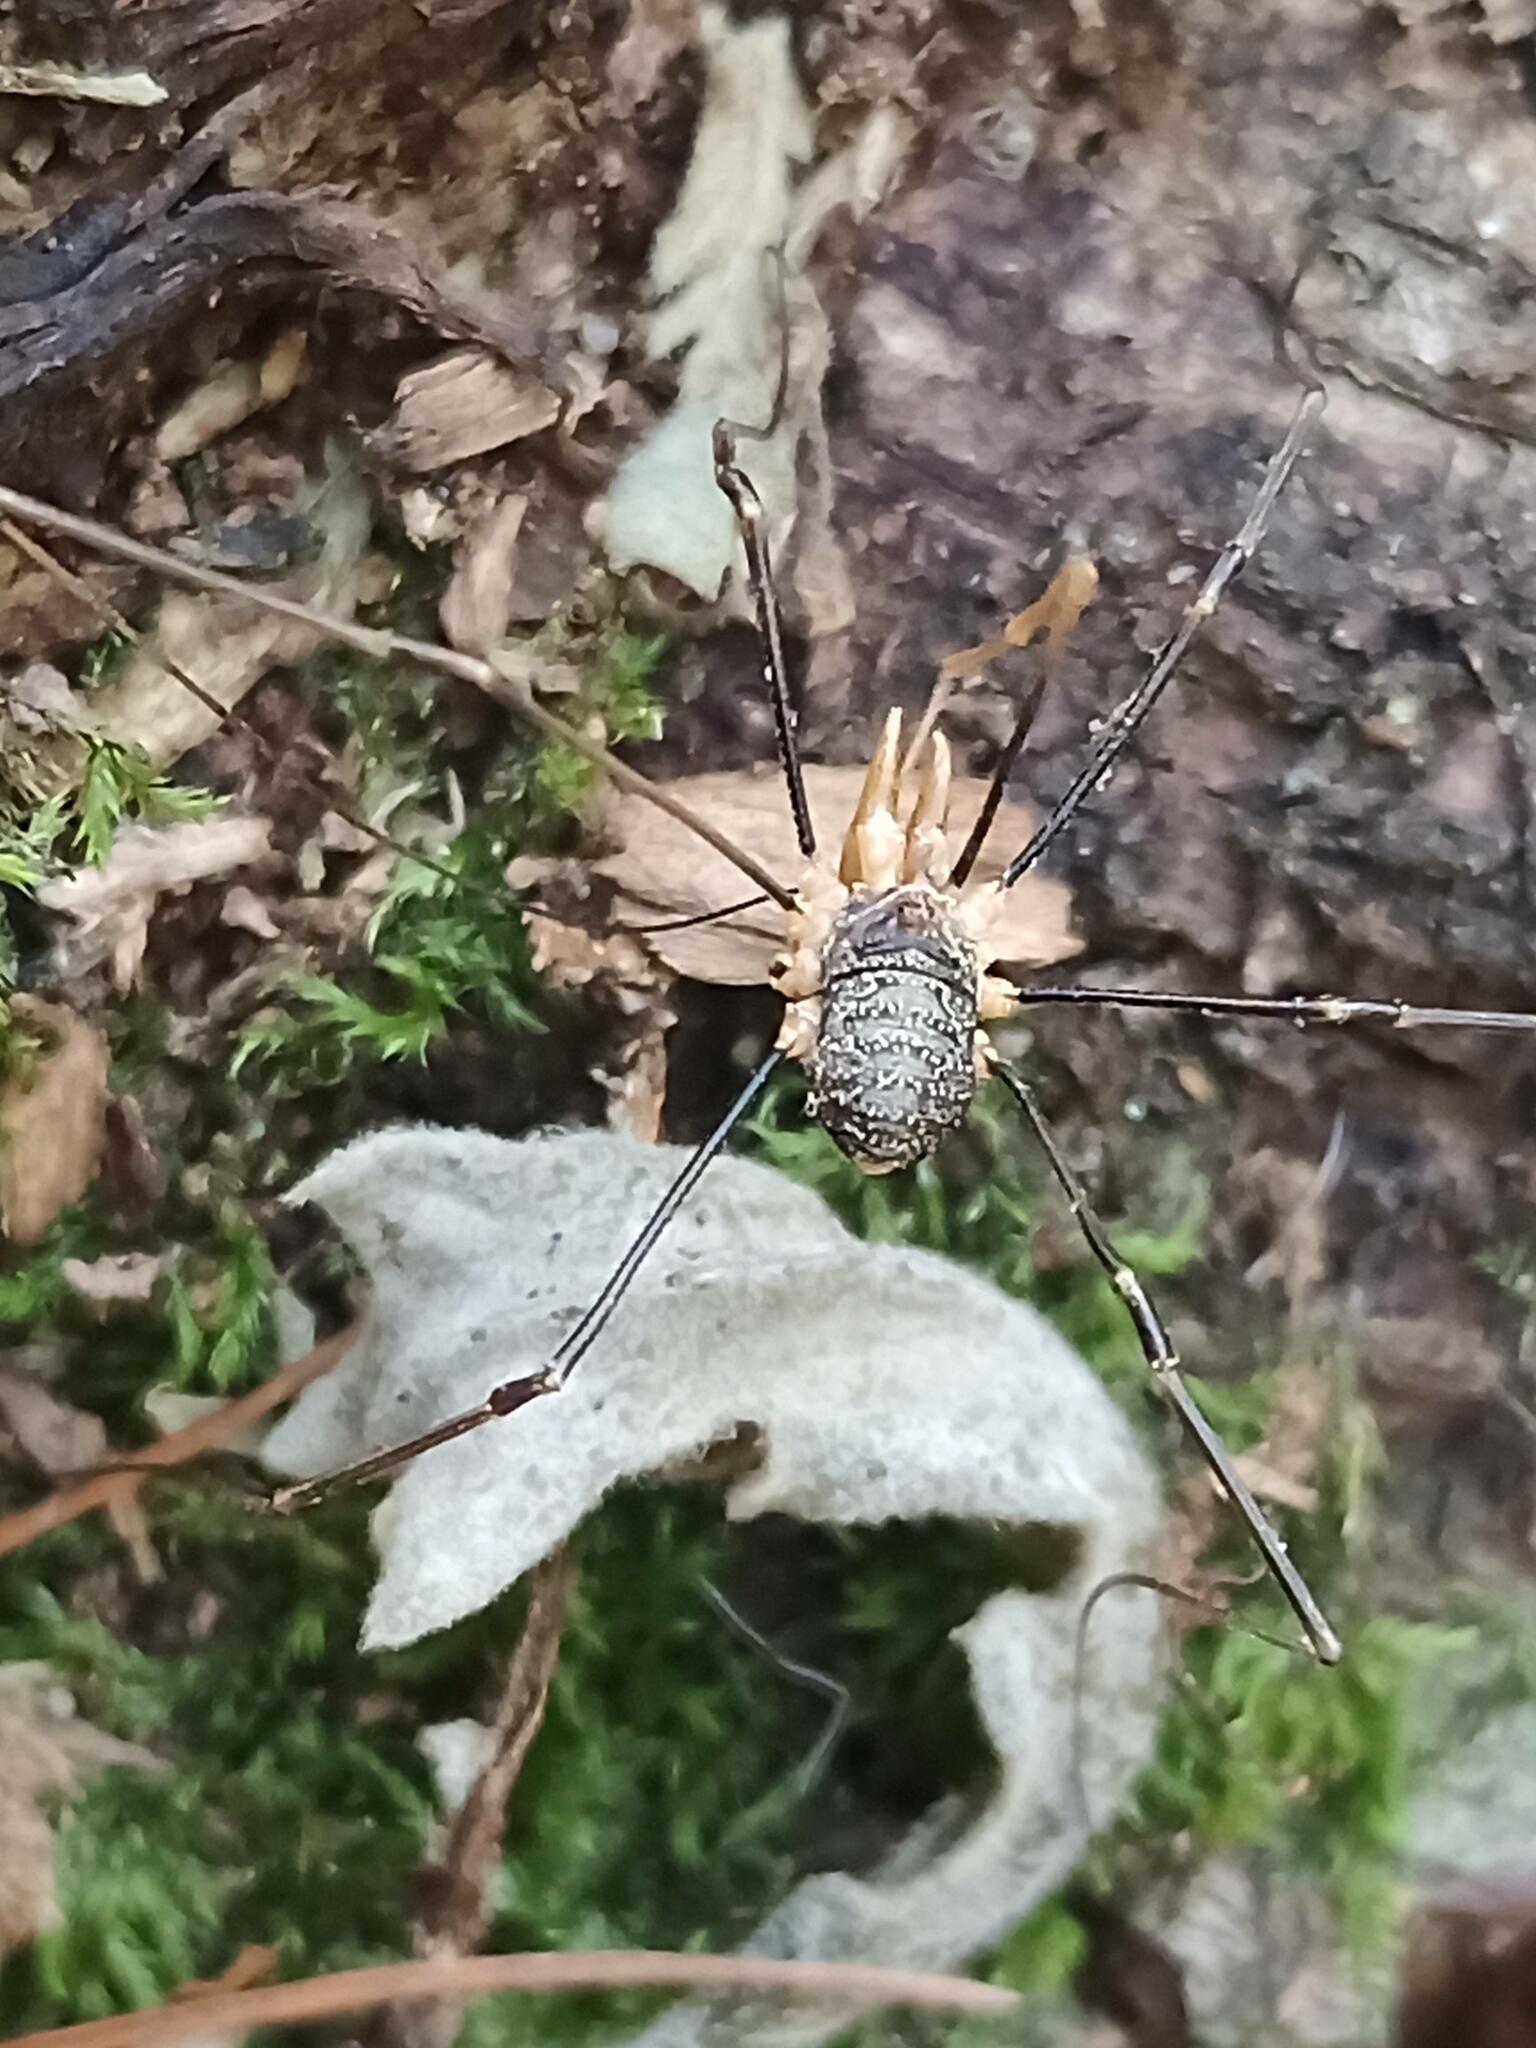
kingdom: Animalia
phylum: Arthropoda
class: Arachnida
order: Opiliones
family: Phalangiidae
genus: Phalangium
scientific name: Phalangium opilio
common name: Daddy longleg
